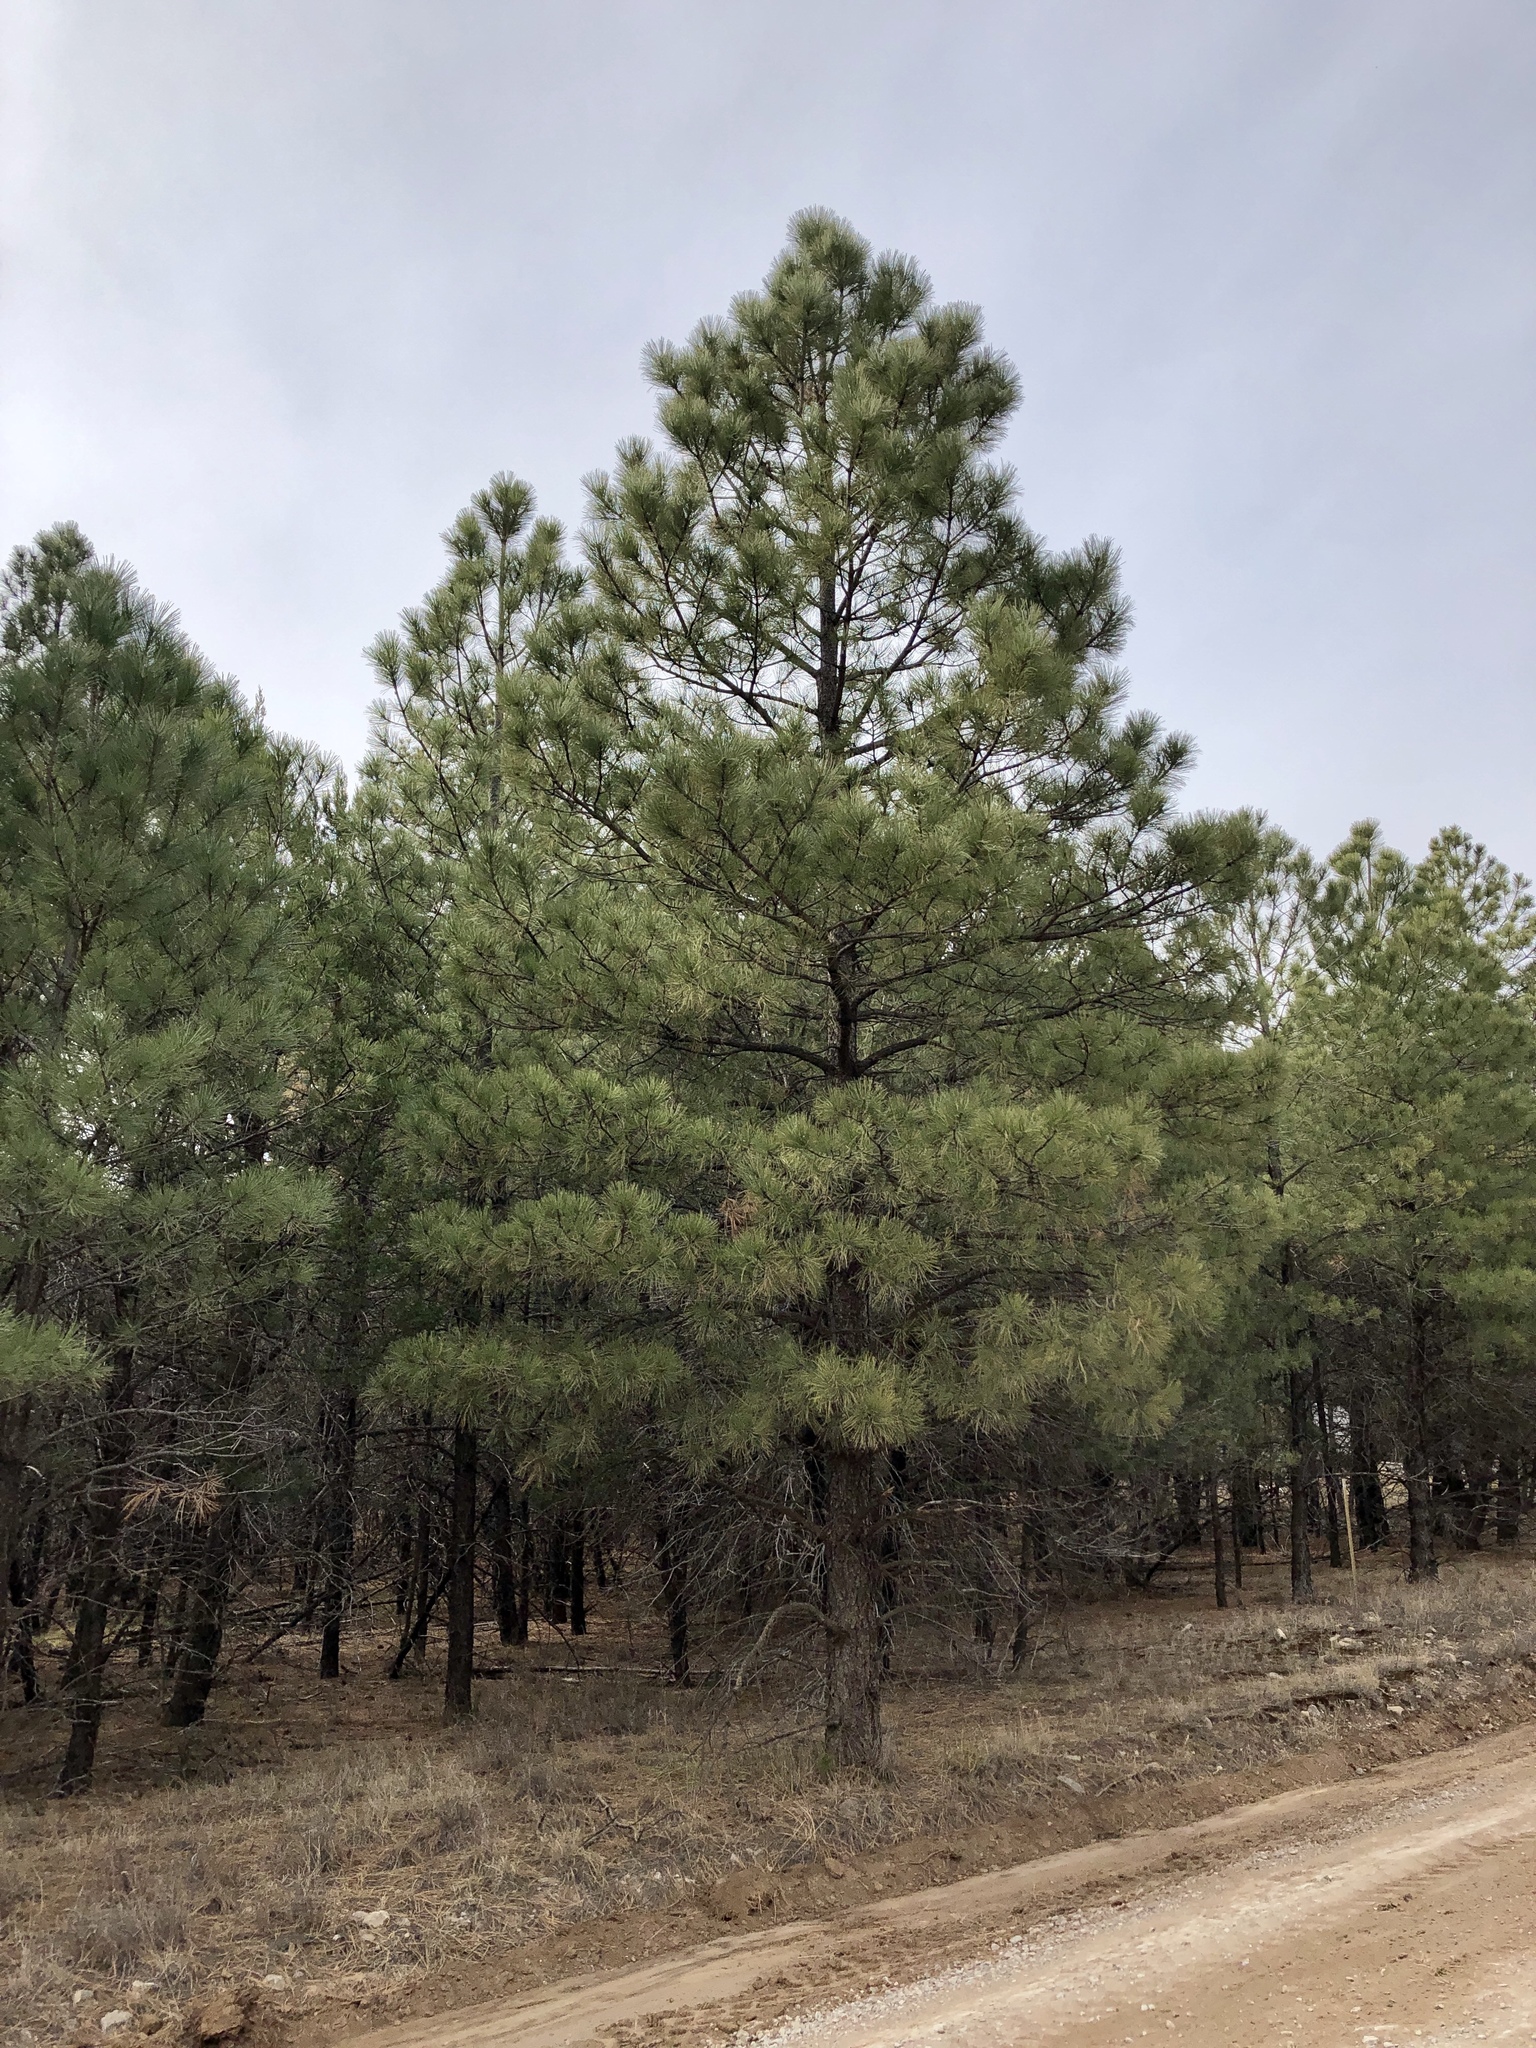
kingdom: Plantae
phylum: Tracheophyta
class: Pinopsida
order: Pinales
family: Pinaceae
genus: Pinus
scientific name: Pinus ponderosa
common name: Western yellow-pine
